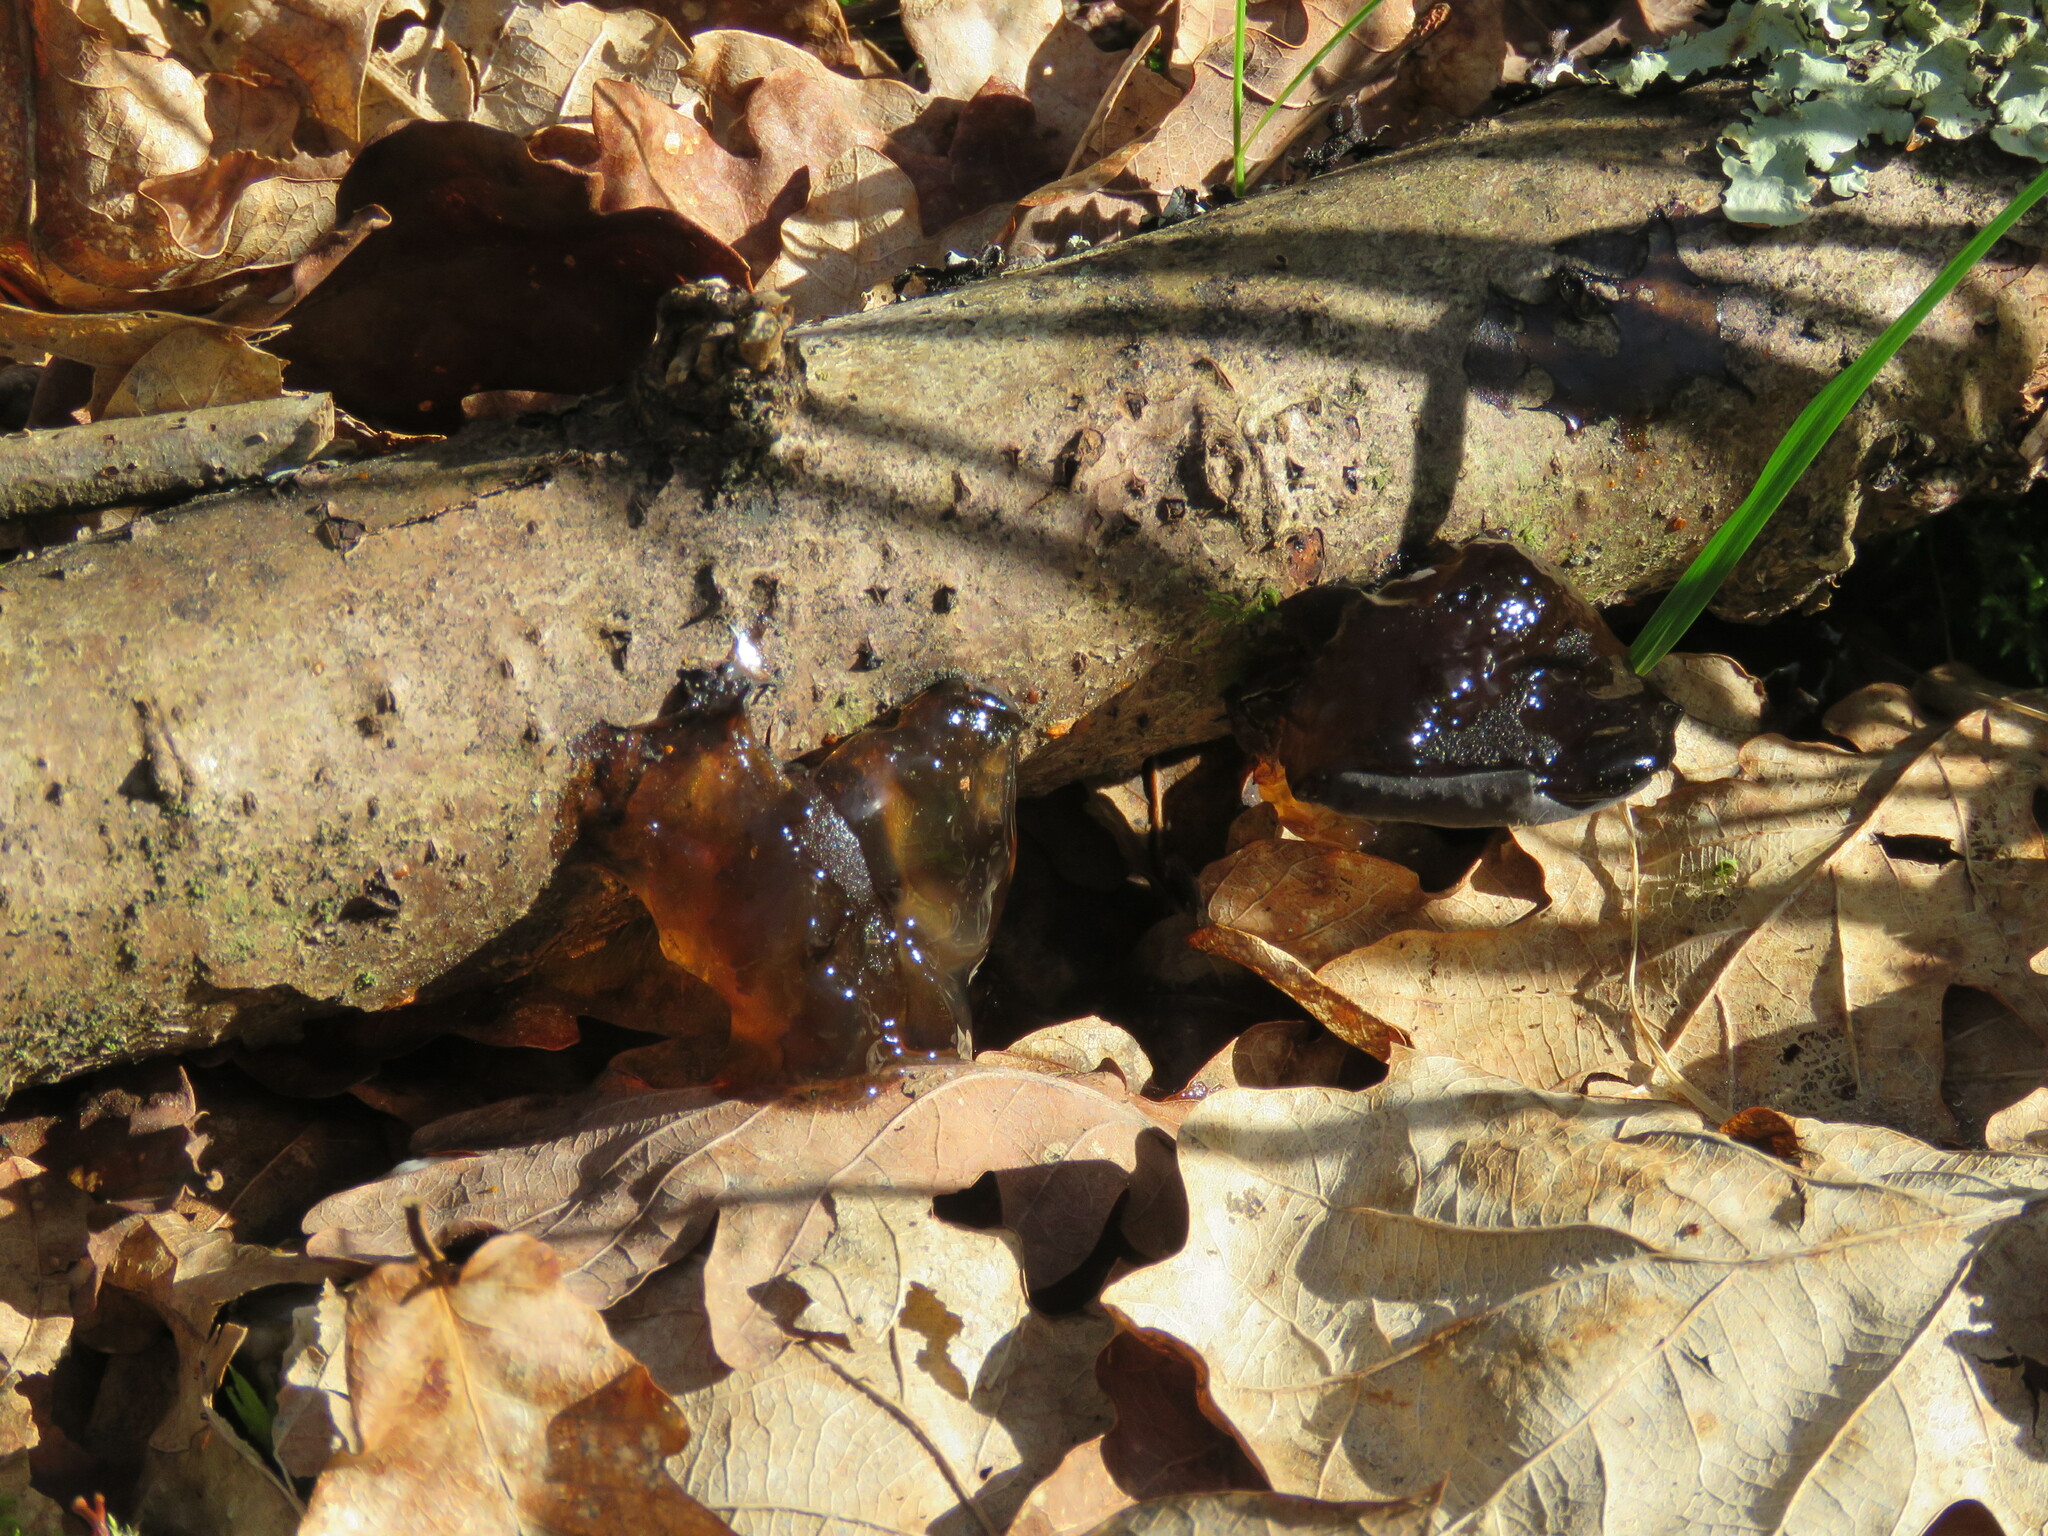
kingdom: Fungi
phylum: Basidiomycota
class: Agaricomycetes
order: Auriculariales
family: Auriculariaceae
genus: Exidia
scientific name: Exidia glandulosa
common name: Witches' butter
